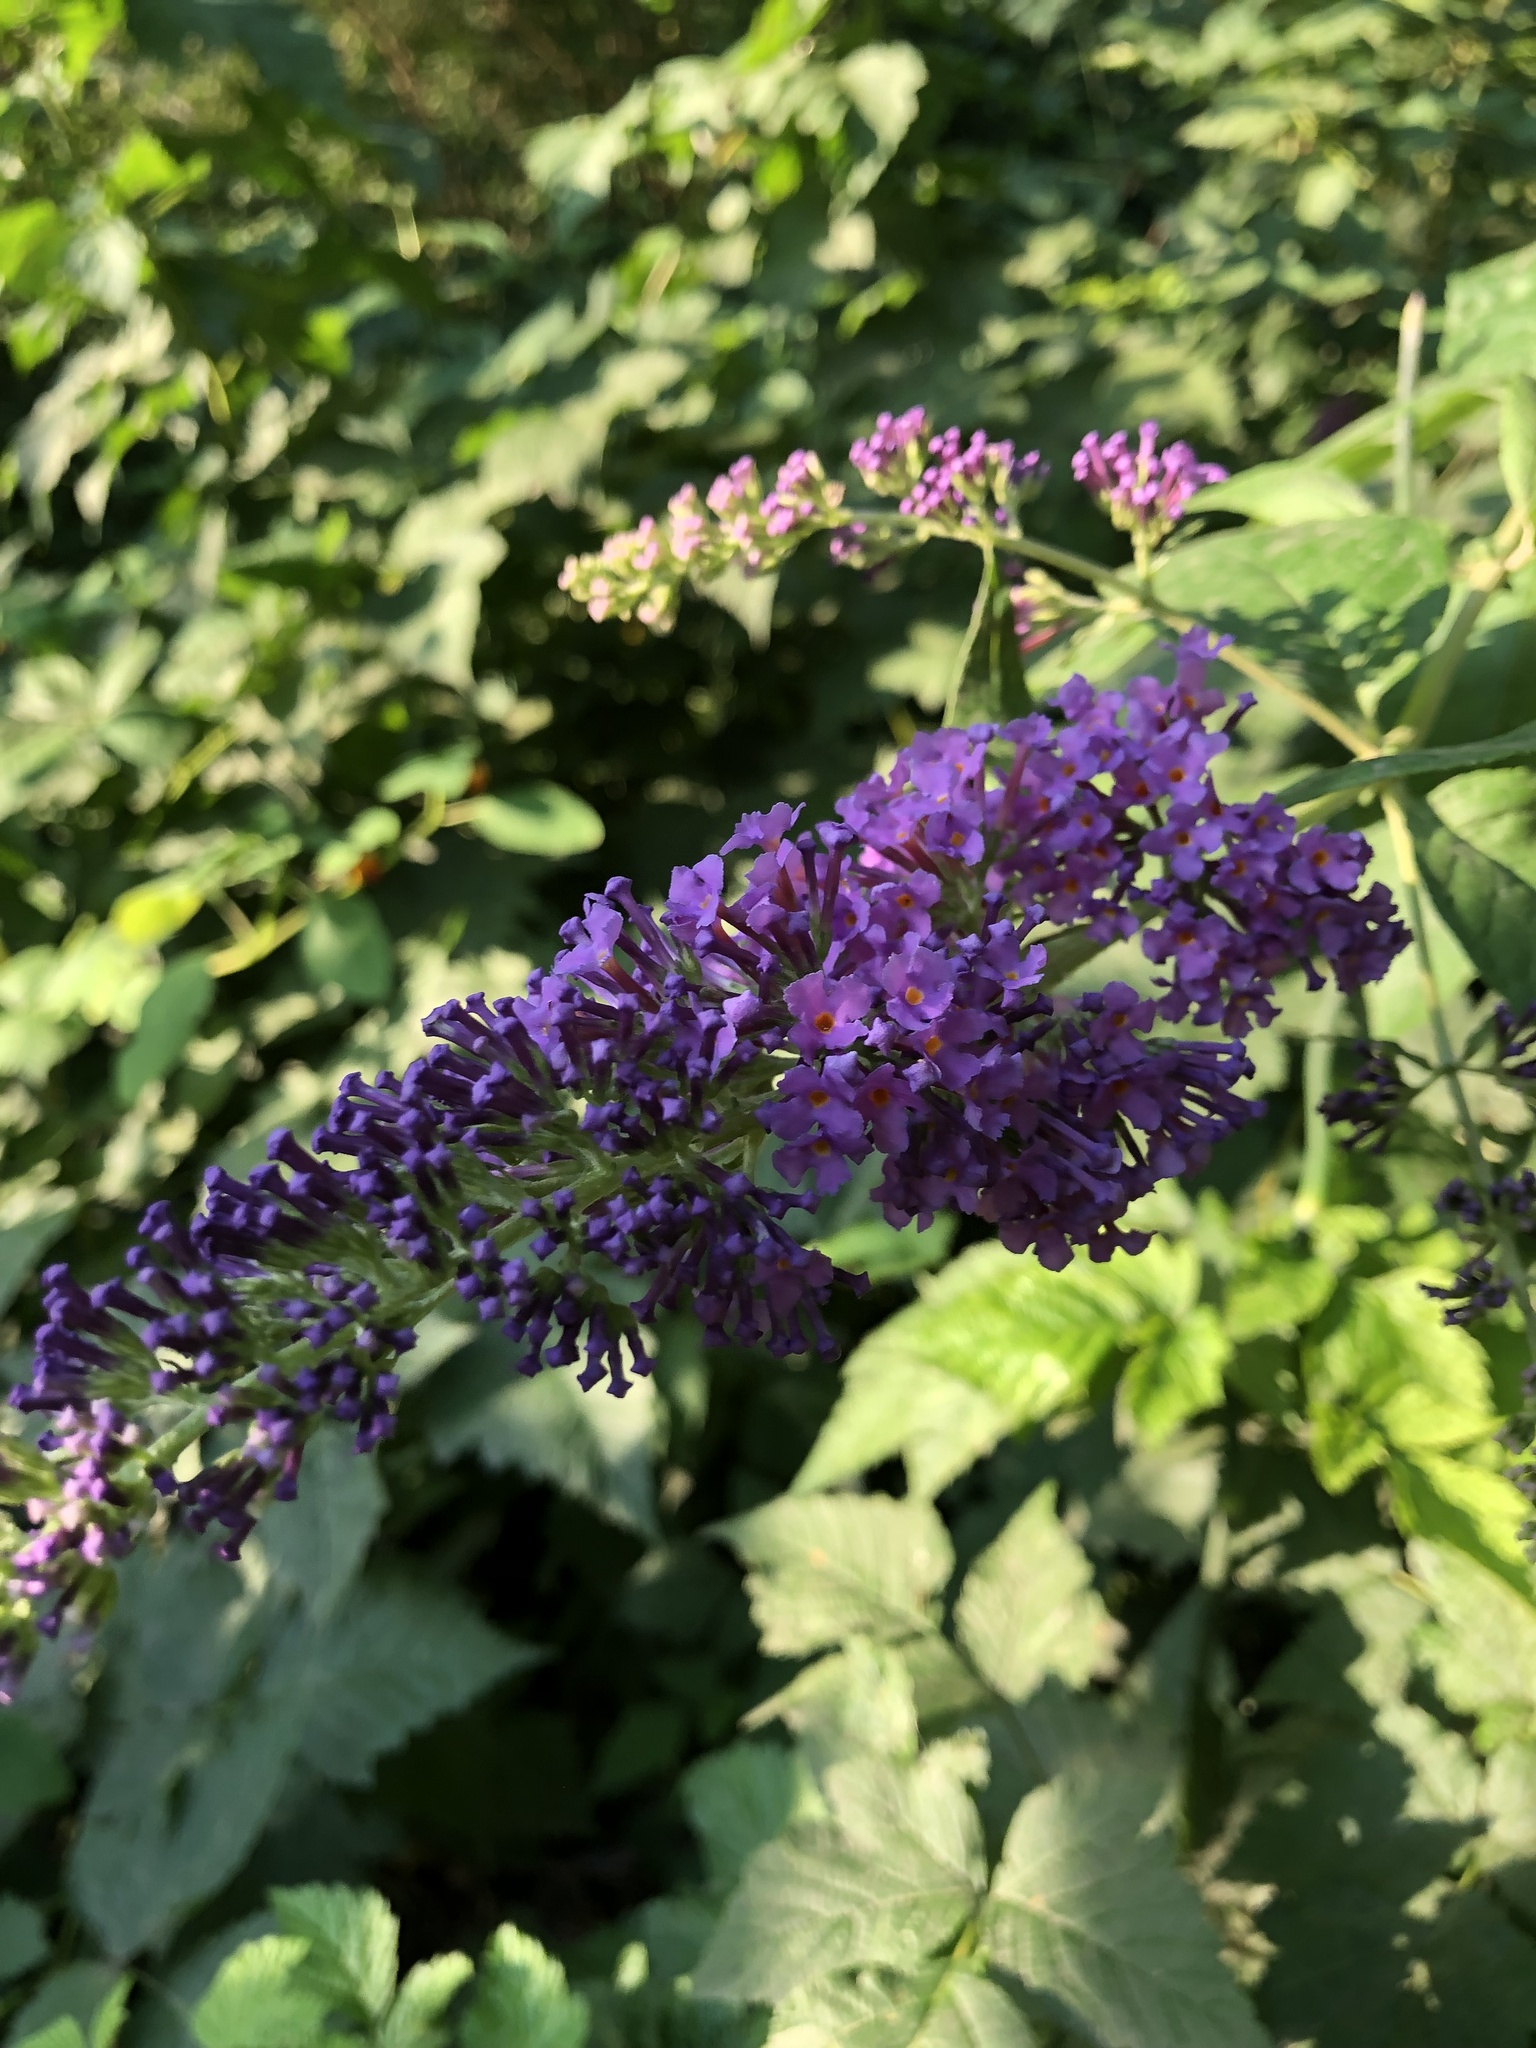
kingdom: Plantae
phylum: Tracheophyta
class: Magnoliopsida
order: Lamiales
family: Scrophulariaceae
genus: Buddleja
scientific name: Buddleja davidii
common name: Butterfly-bush
